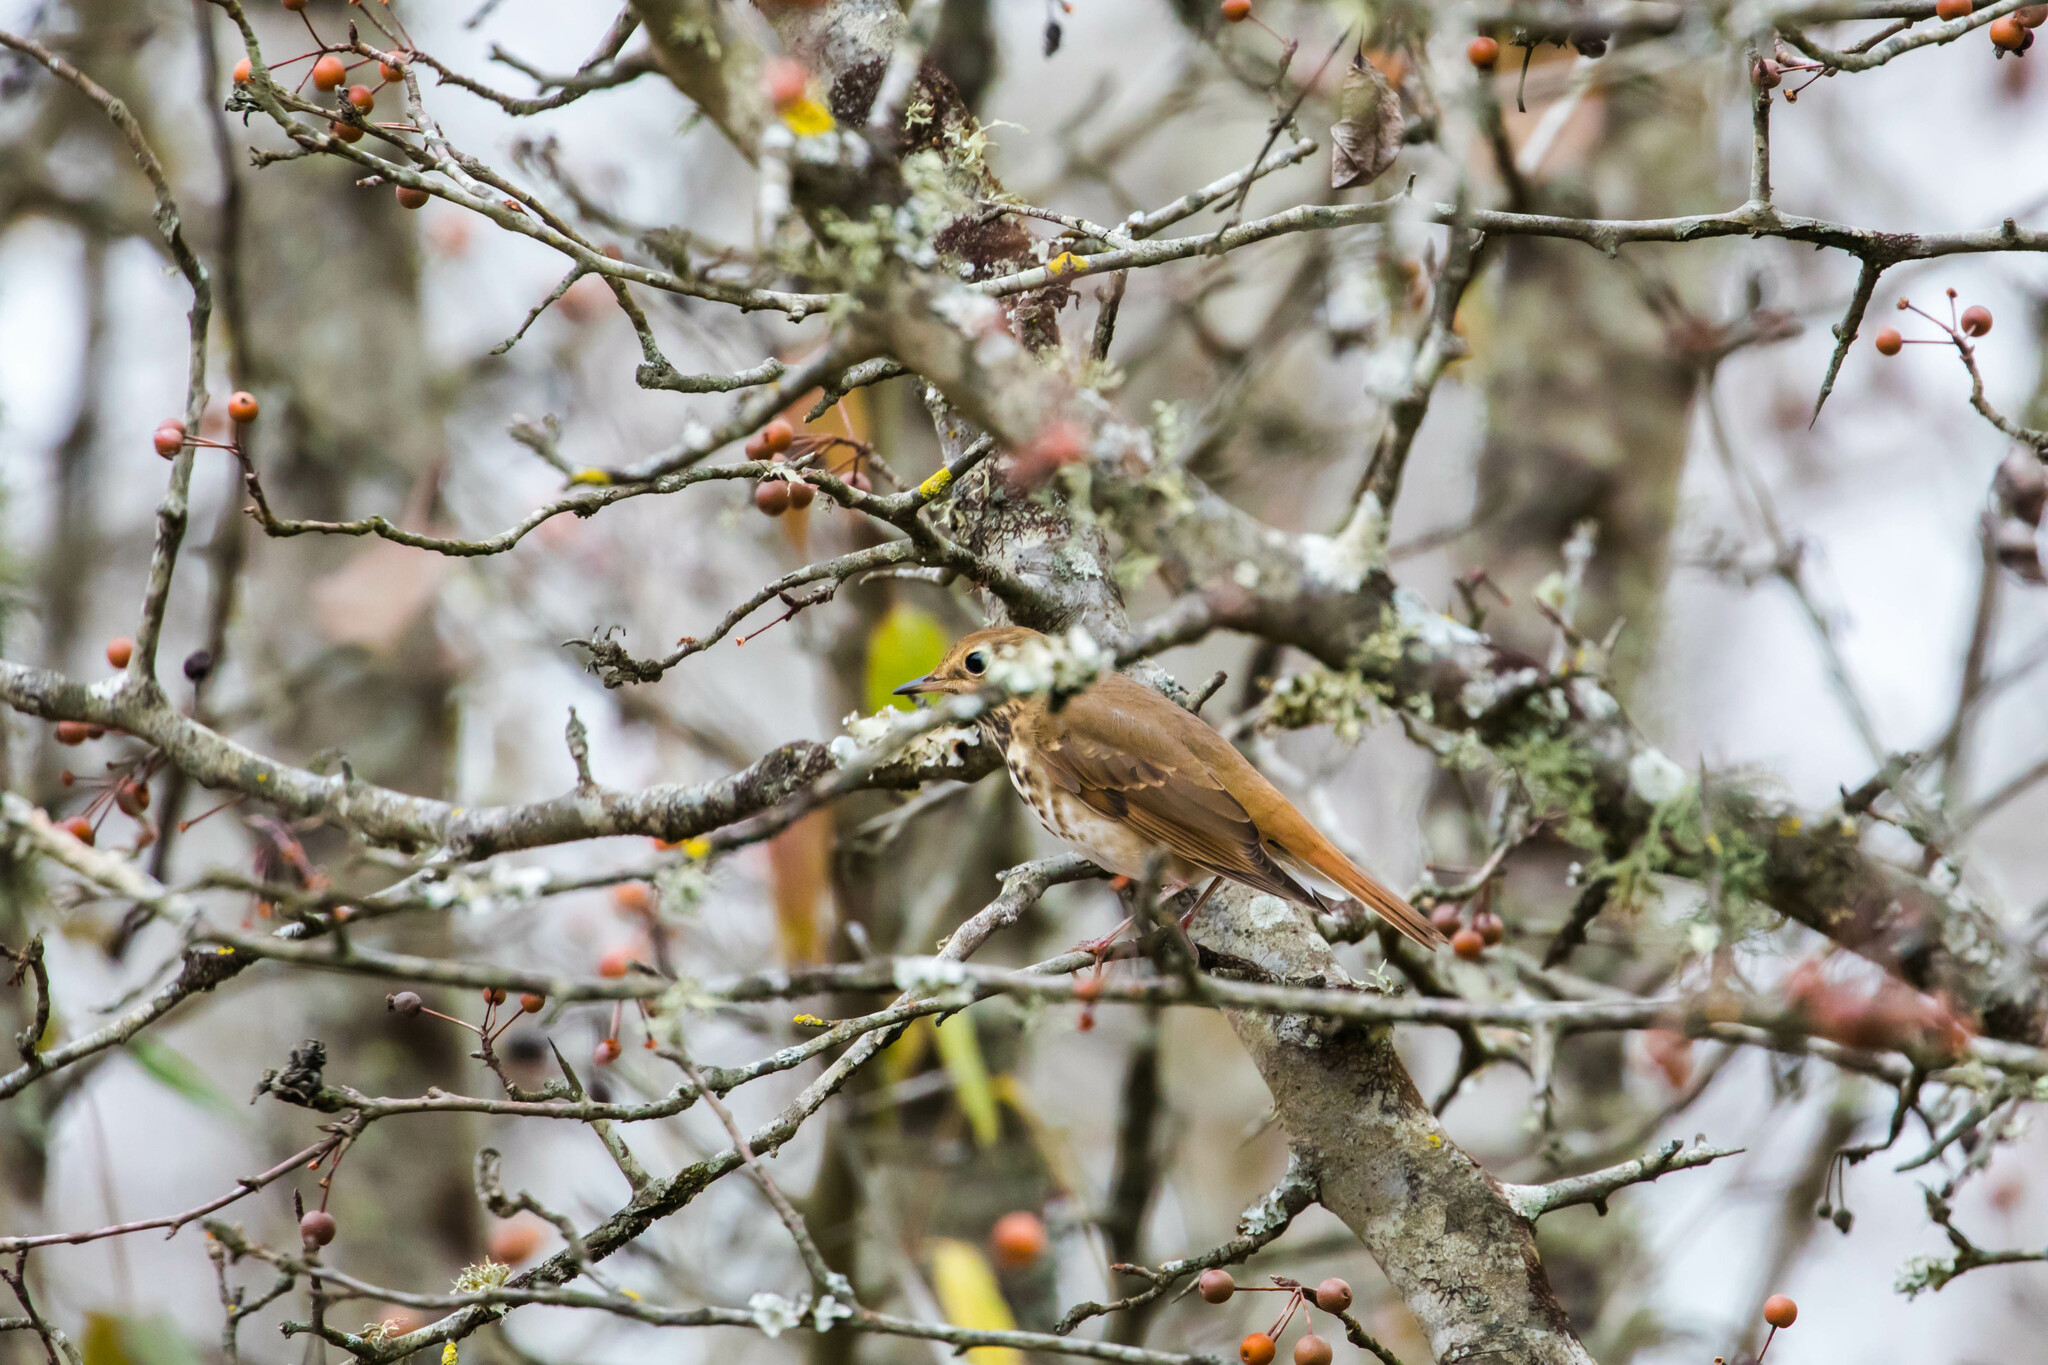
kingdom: Animalia
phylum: Chordata
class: Aves
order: Passeriformes
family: Turdidae
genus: Catharus
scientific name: Catharus guttatus
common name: Hermit thrush
